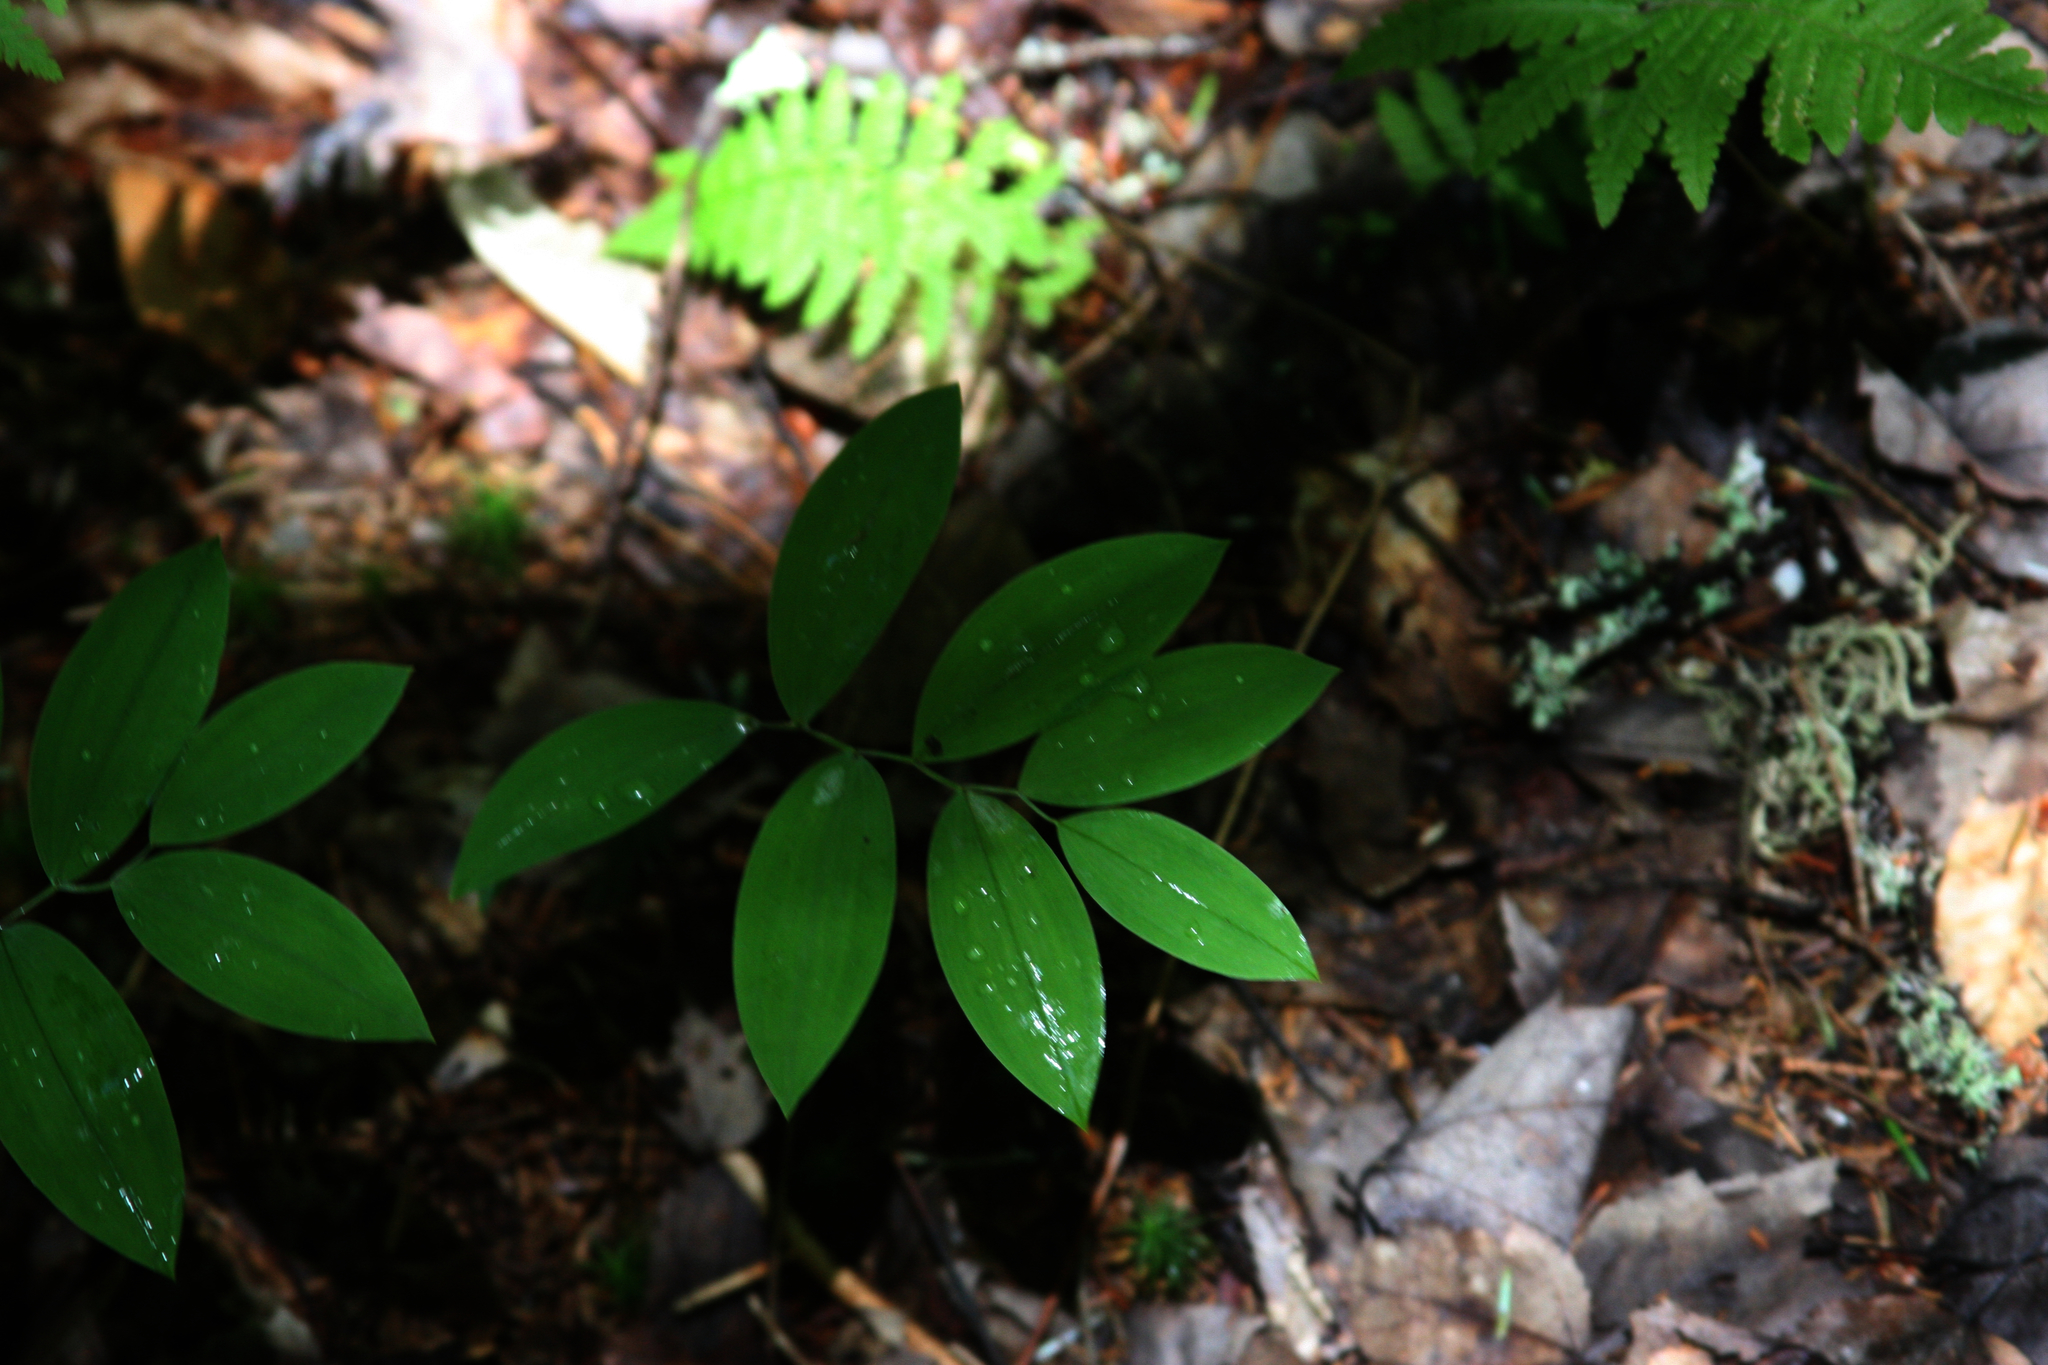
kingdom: Plantae
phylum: Tracheophyta
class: Liliopsida
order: Liliales
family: Colchicaceae
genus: Uvularia
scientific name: Uvularia sessilifolia
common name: Straw-lily
